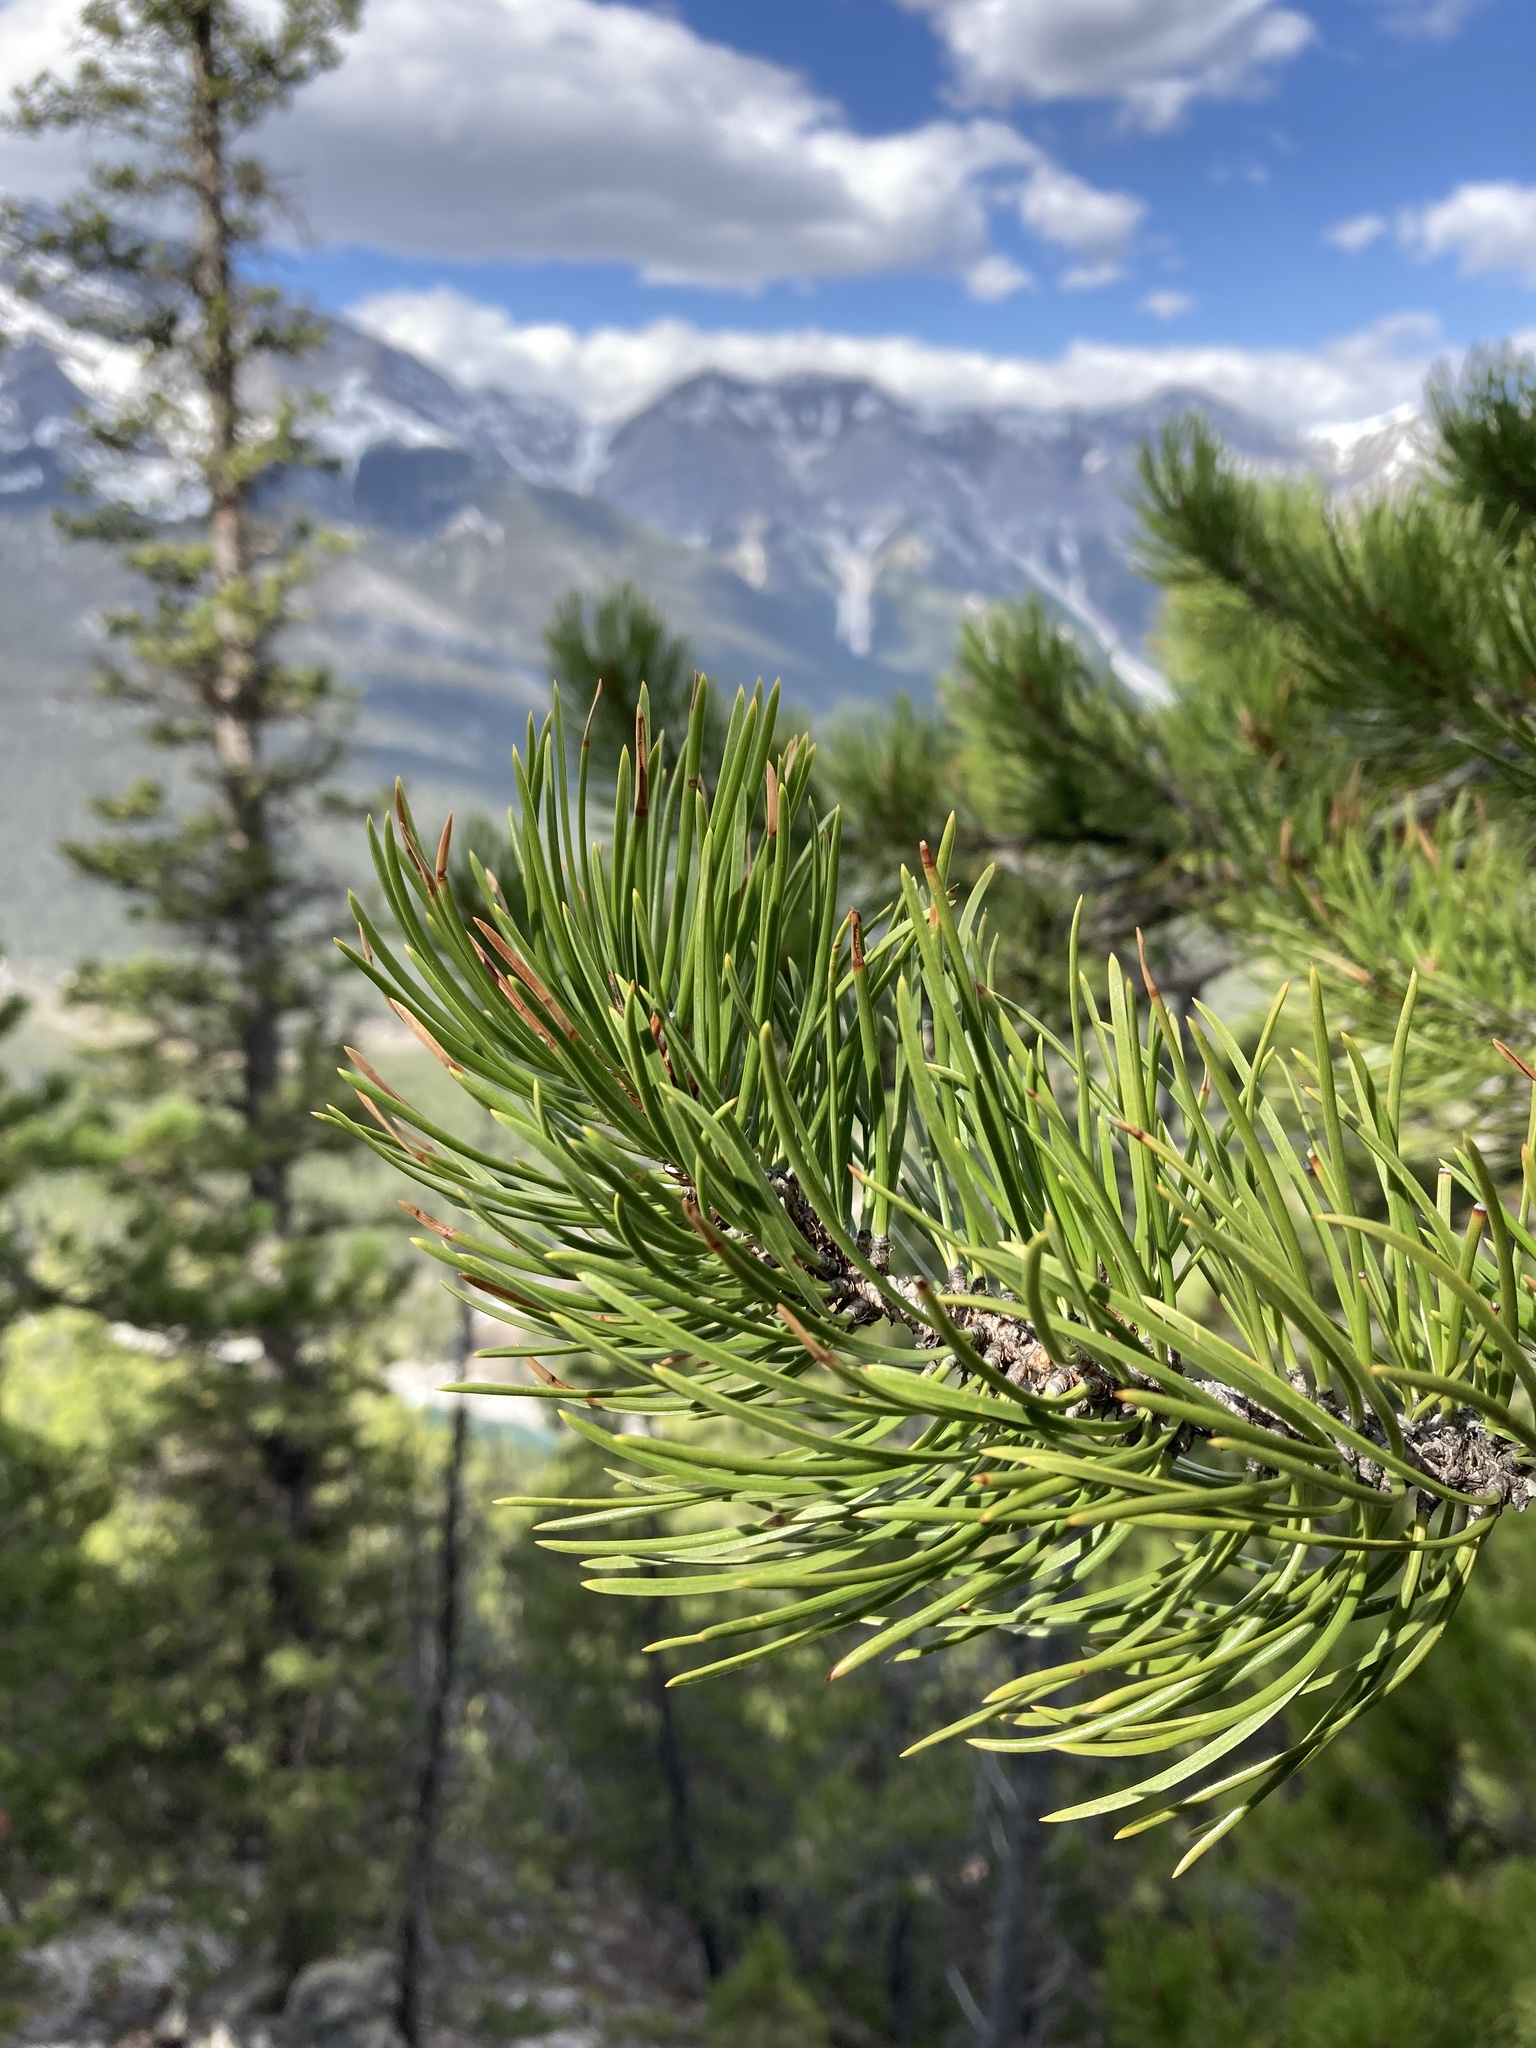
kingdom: Plantae
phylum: Tracheophyta
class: Pinopsida
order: Pinales
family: Pinaceae
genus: Pinus
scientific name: Pinus contorta
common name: Lodgepole pine
